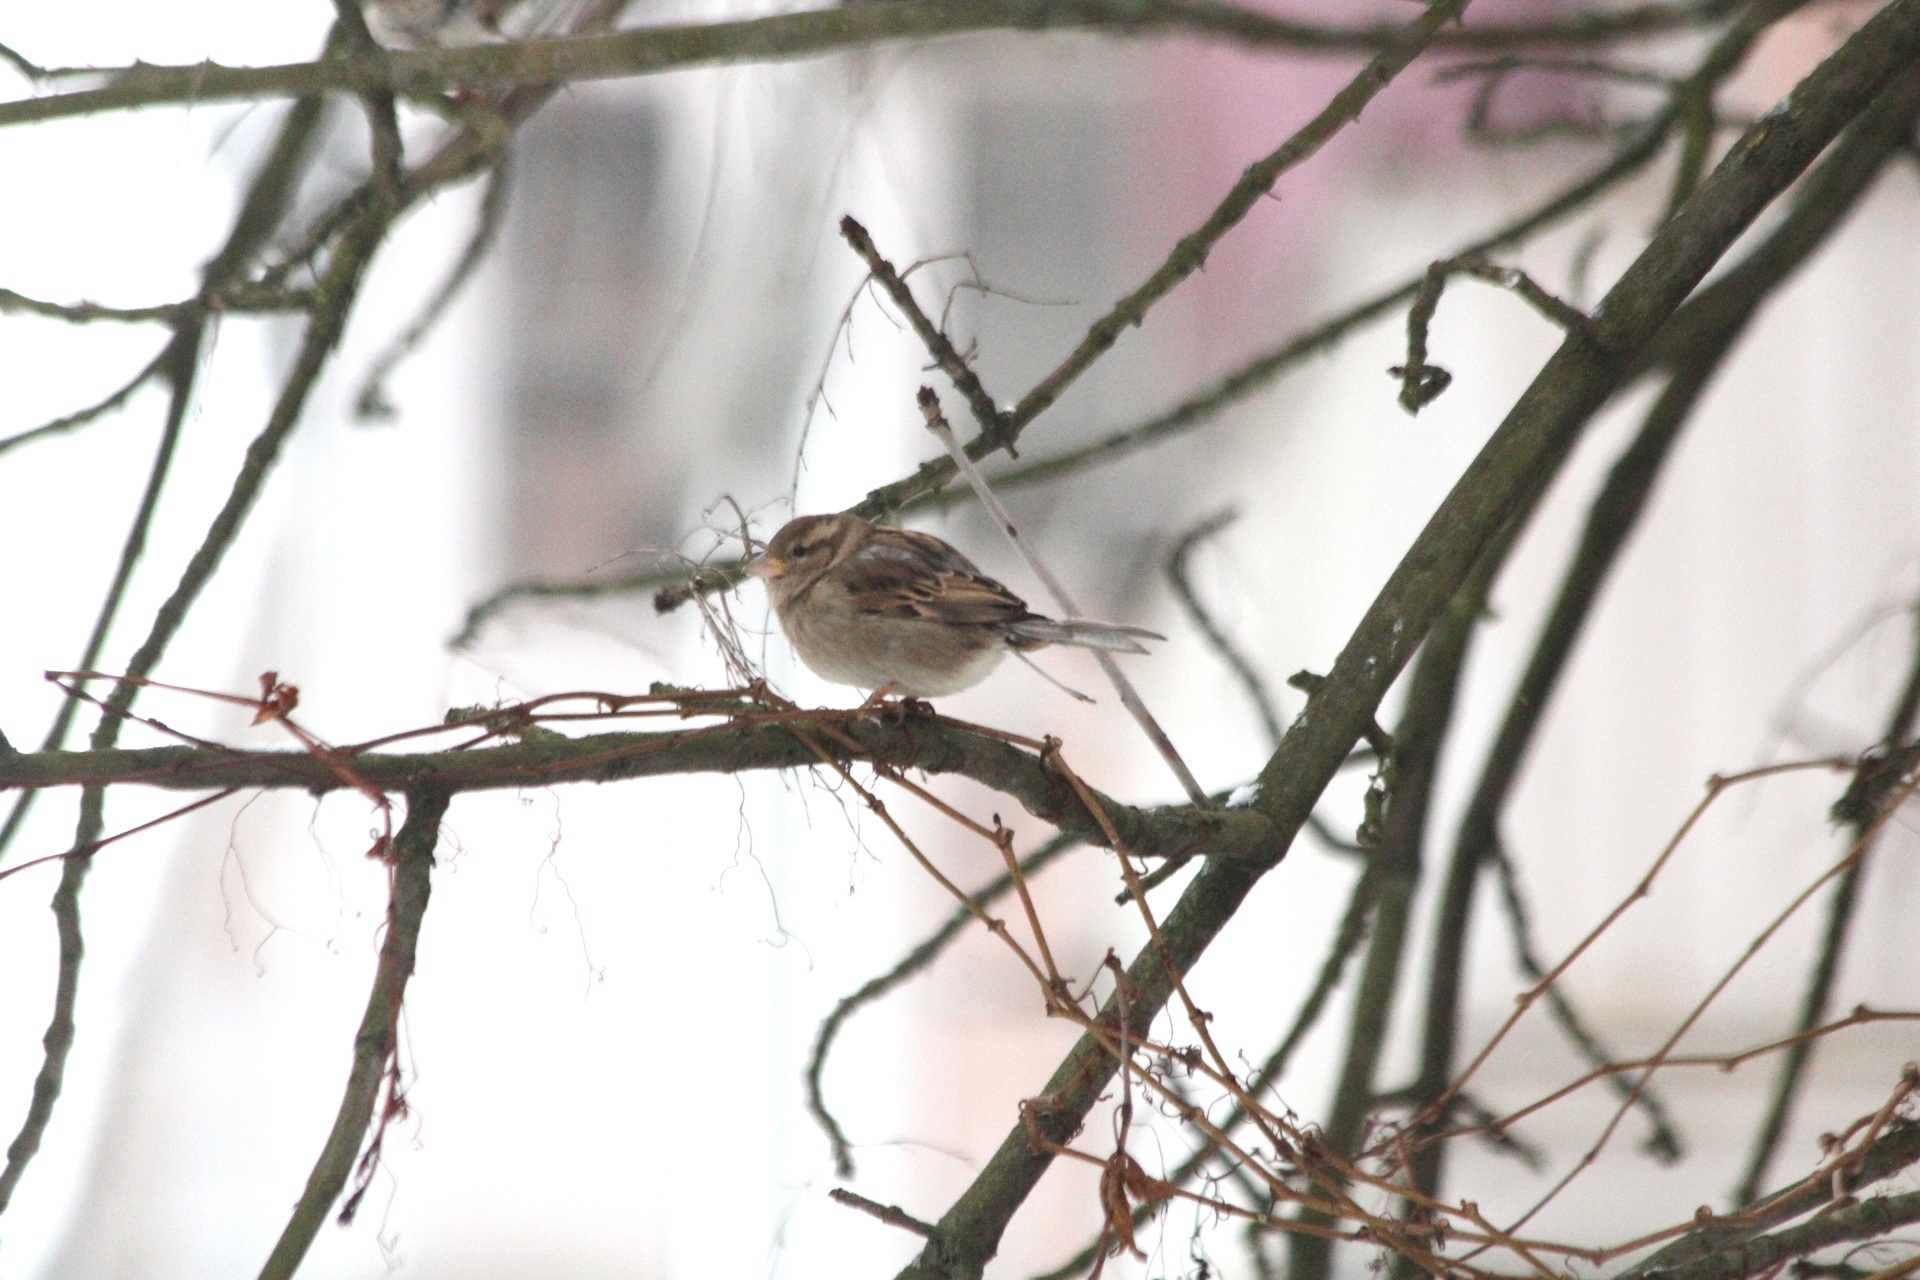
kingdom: Animalia
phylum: Chordata
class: Aves
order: Passeriformes
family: Passeridae
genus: Passer
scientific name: Passer domesticus
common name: House sparrow
